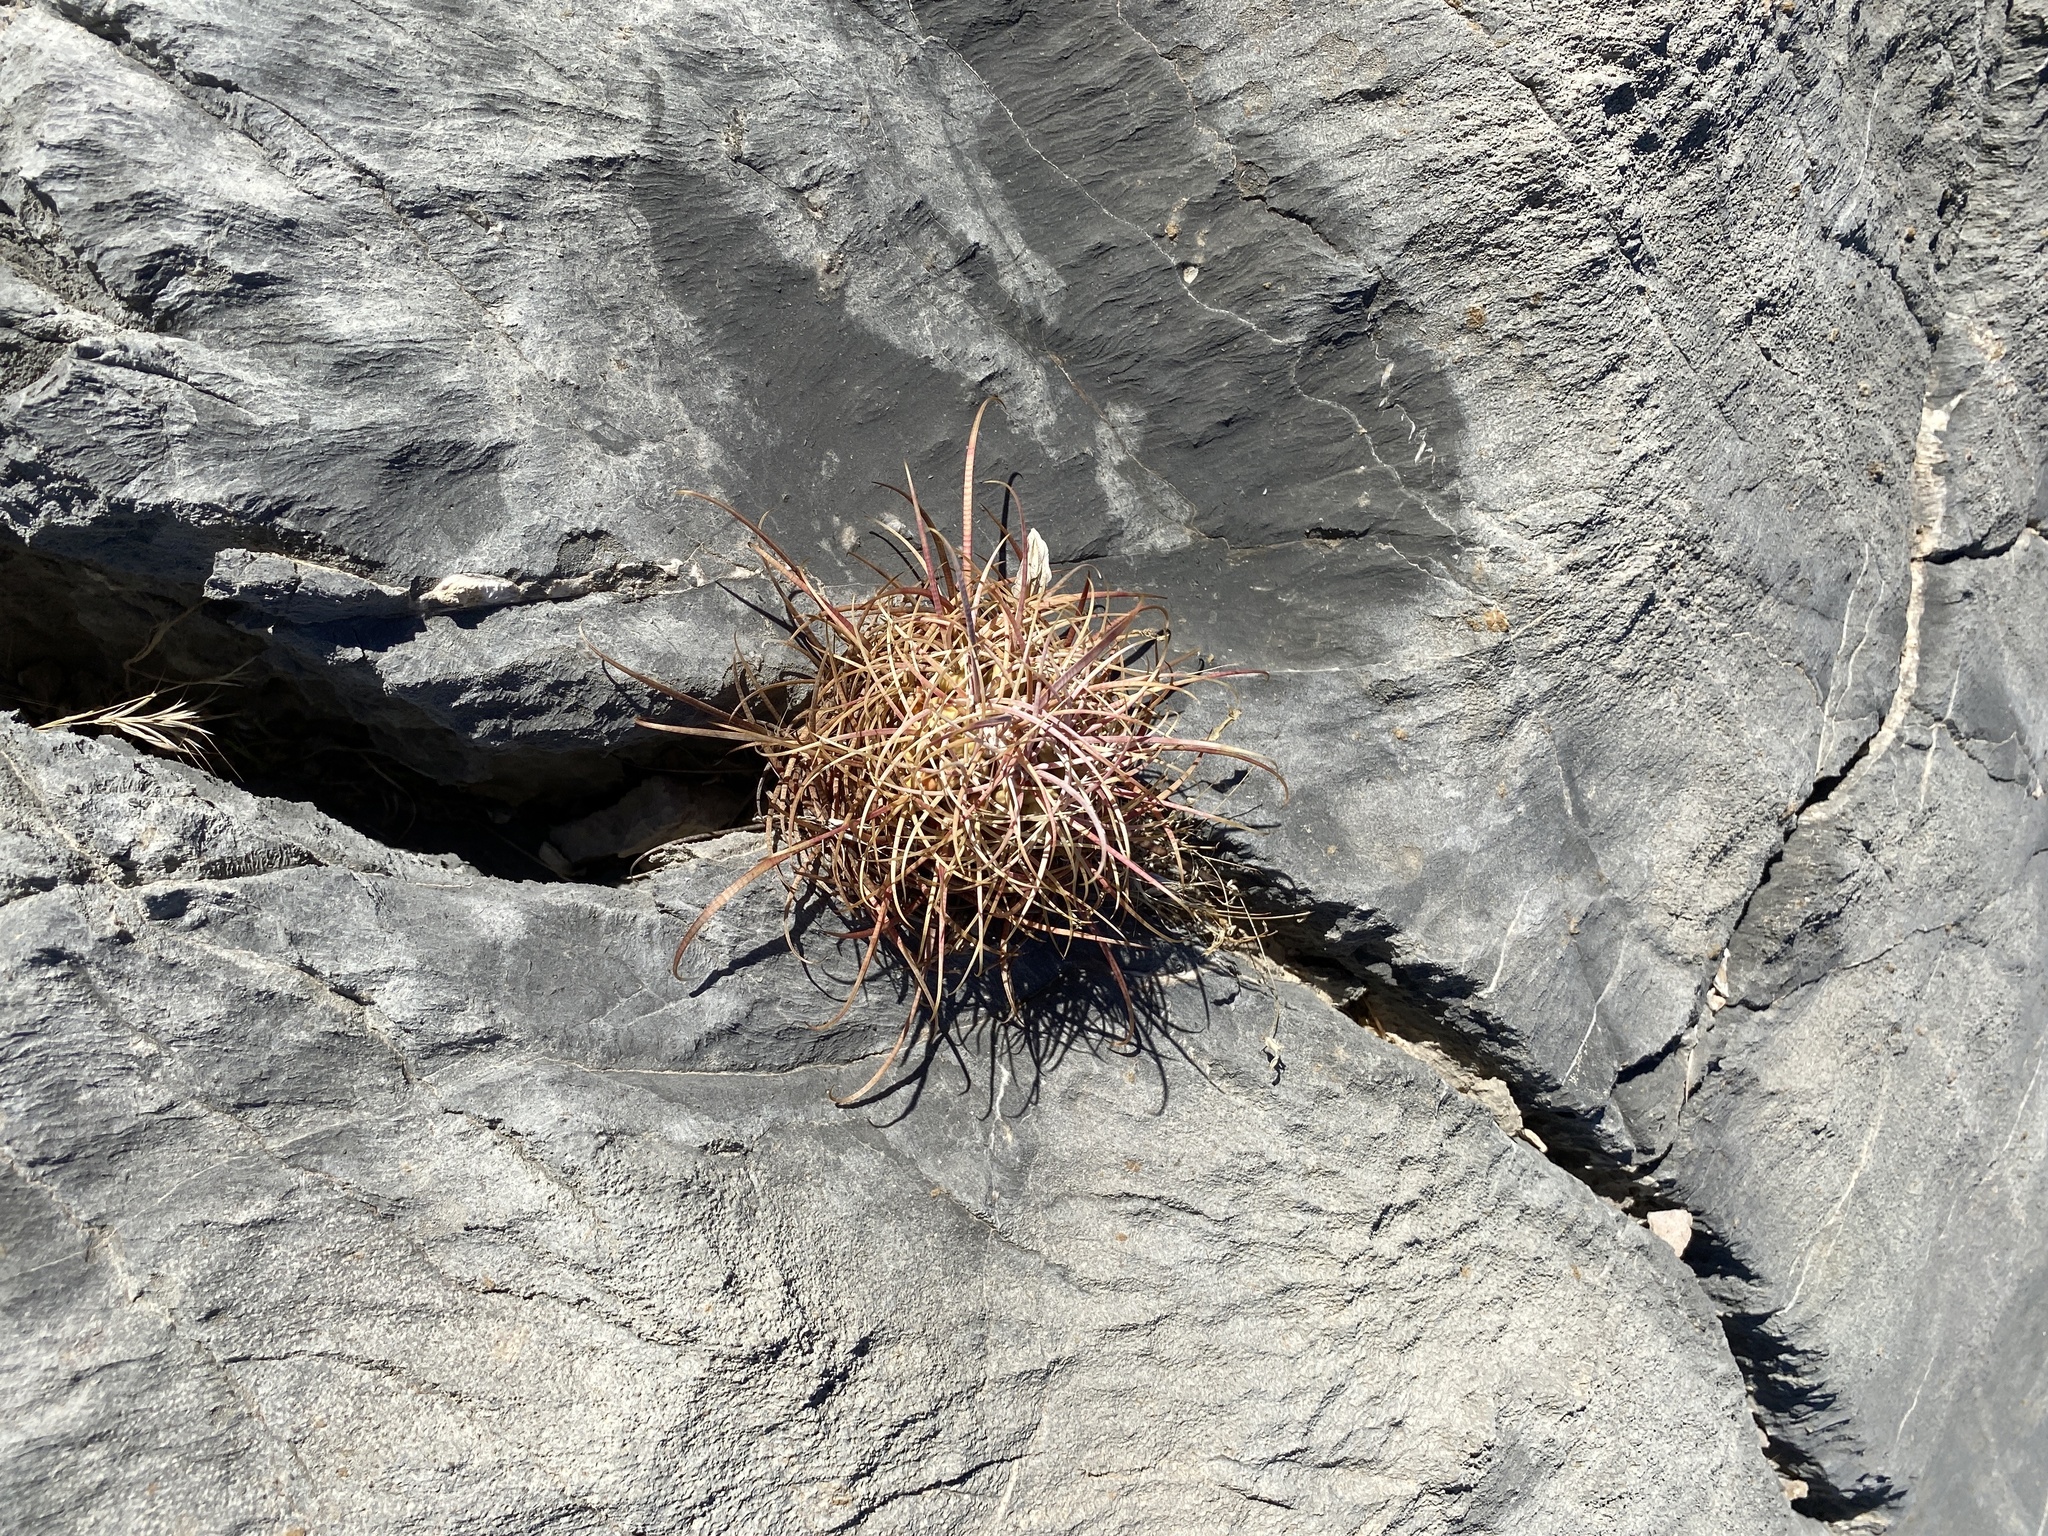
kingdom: Plantae
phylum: Tracheophyta
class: Magnoliopsida
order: Caryophyllales
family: Cactaceae
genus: Ferocactus
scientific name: Ferocactus cylindraceus
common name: California barrel cactus
